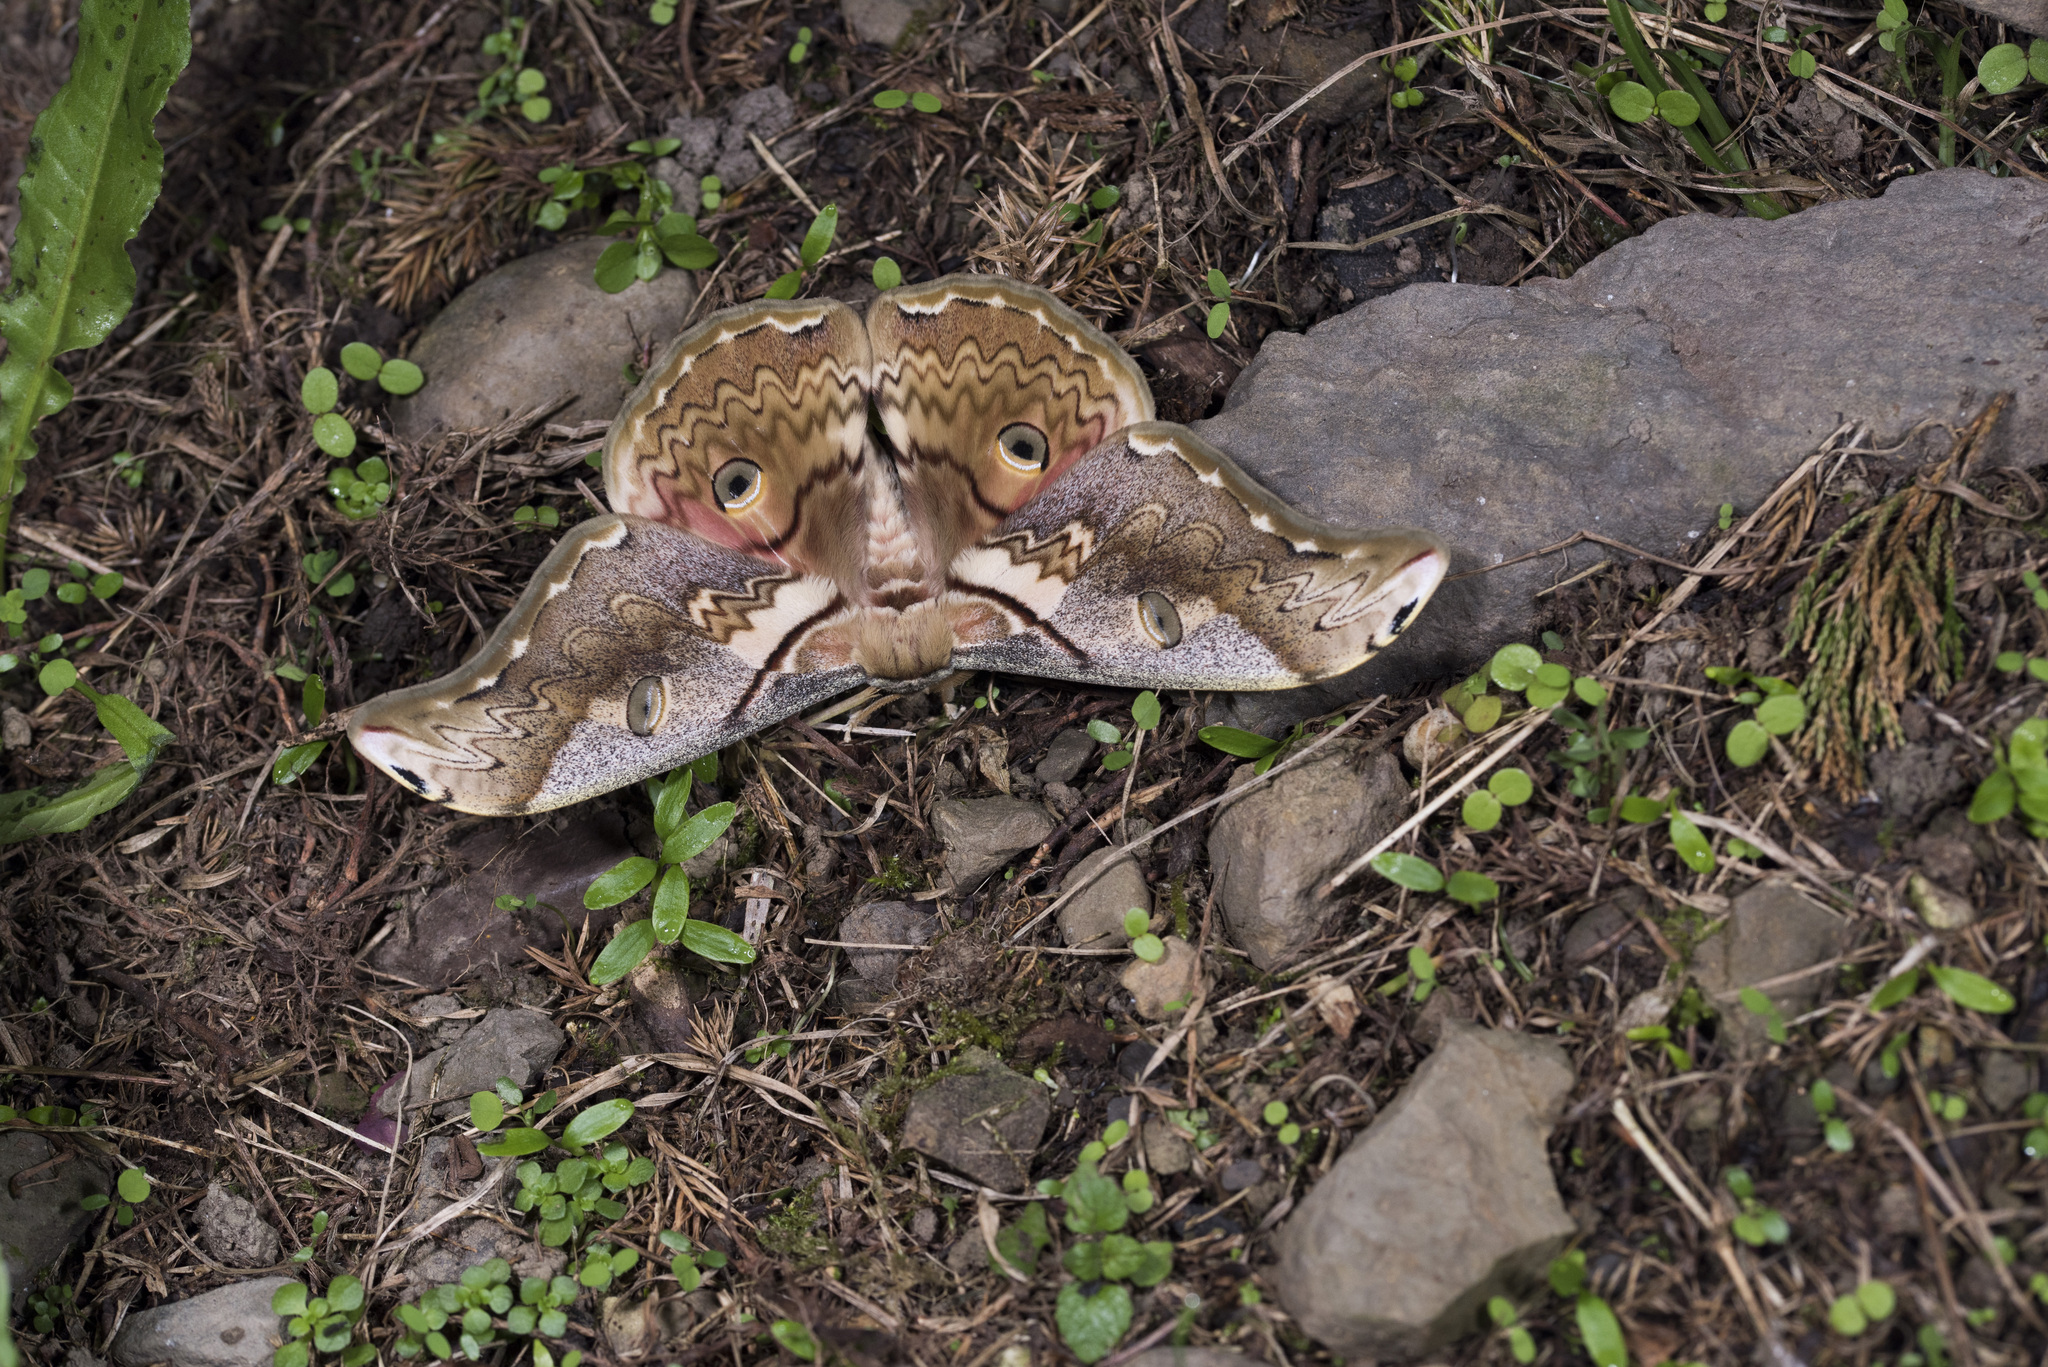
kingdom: Animalia
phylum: Arthropoda
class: Insecta
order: Lepidoptera
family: Saturniidae
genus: Rinaca
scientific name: Rinaca thibeta
